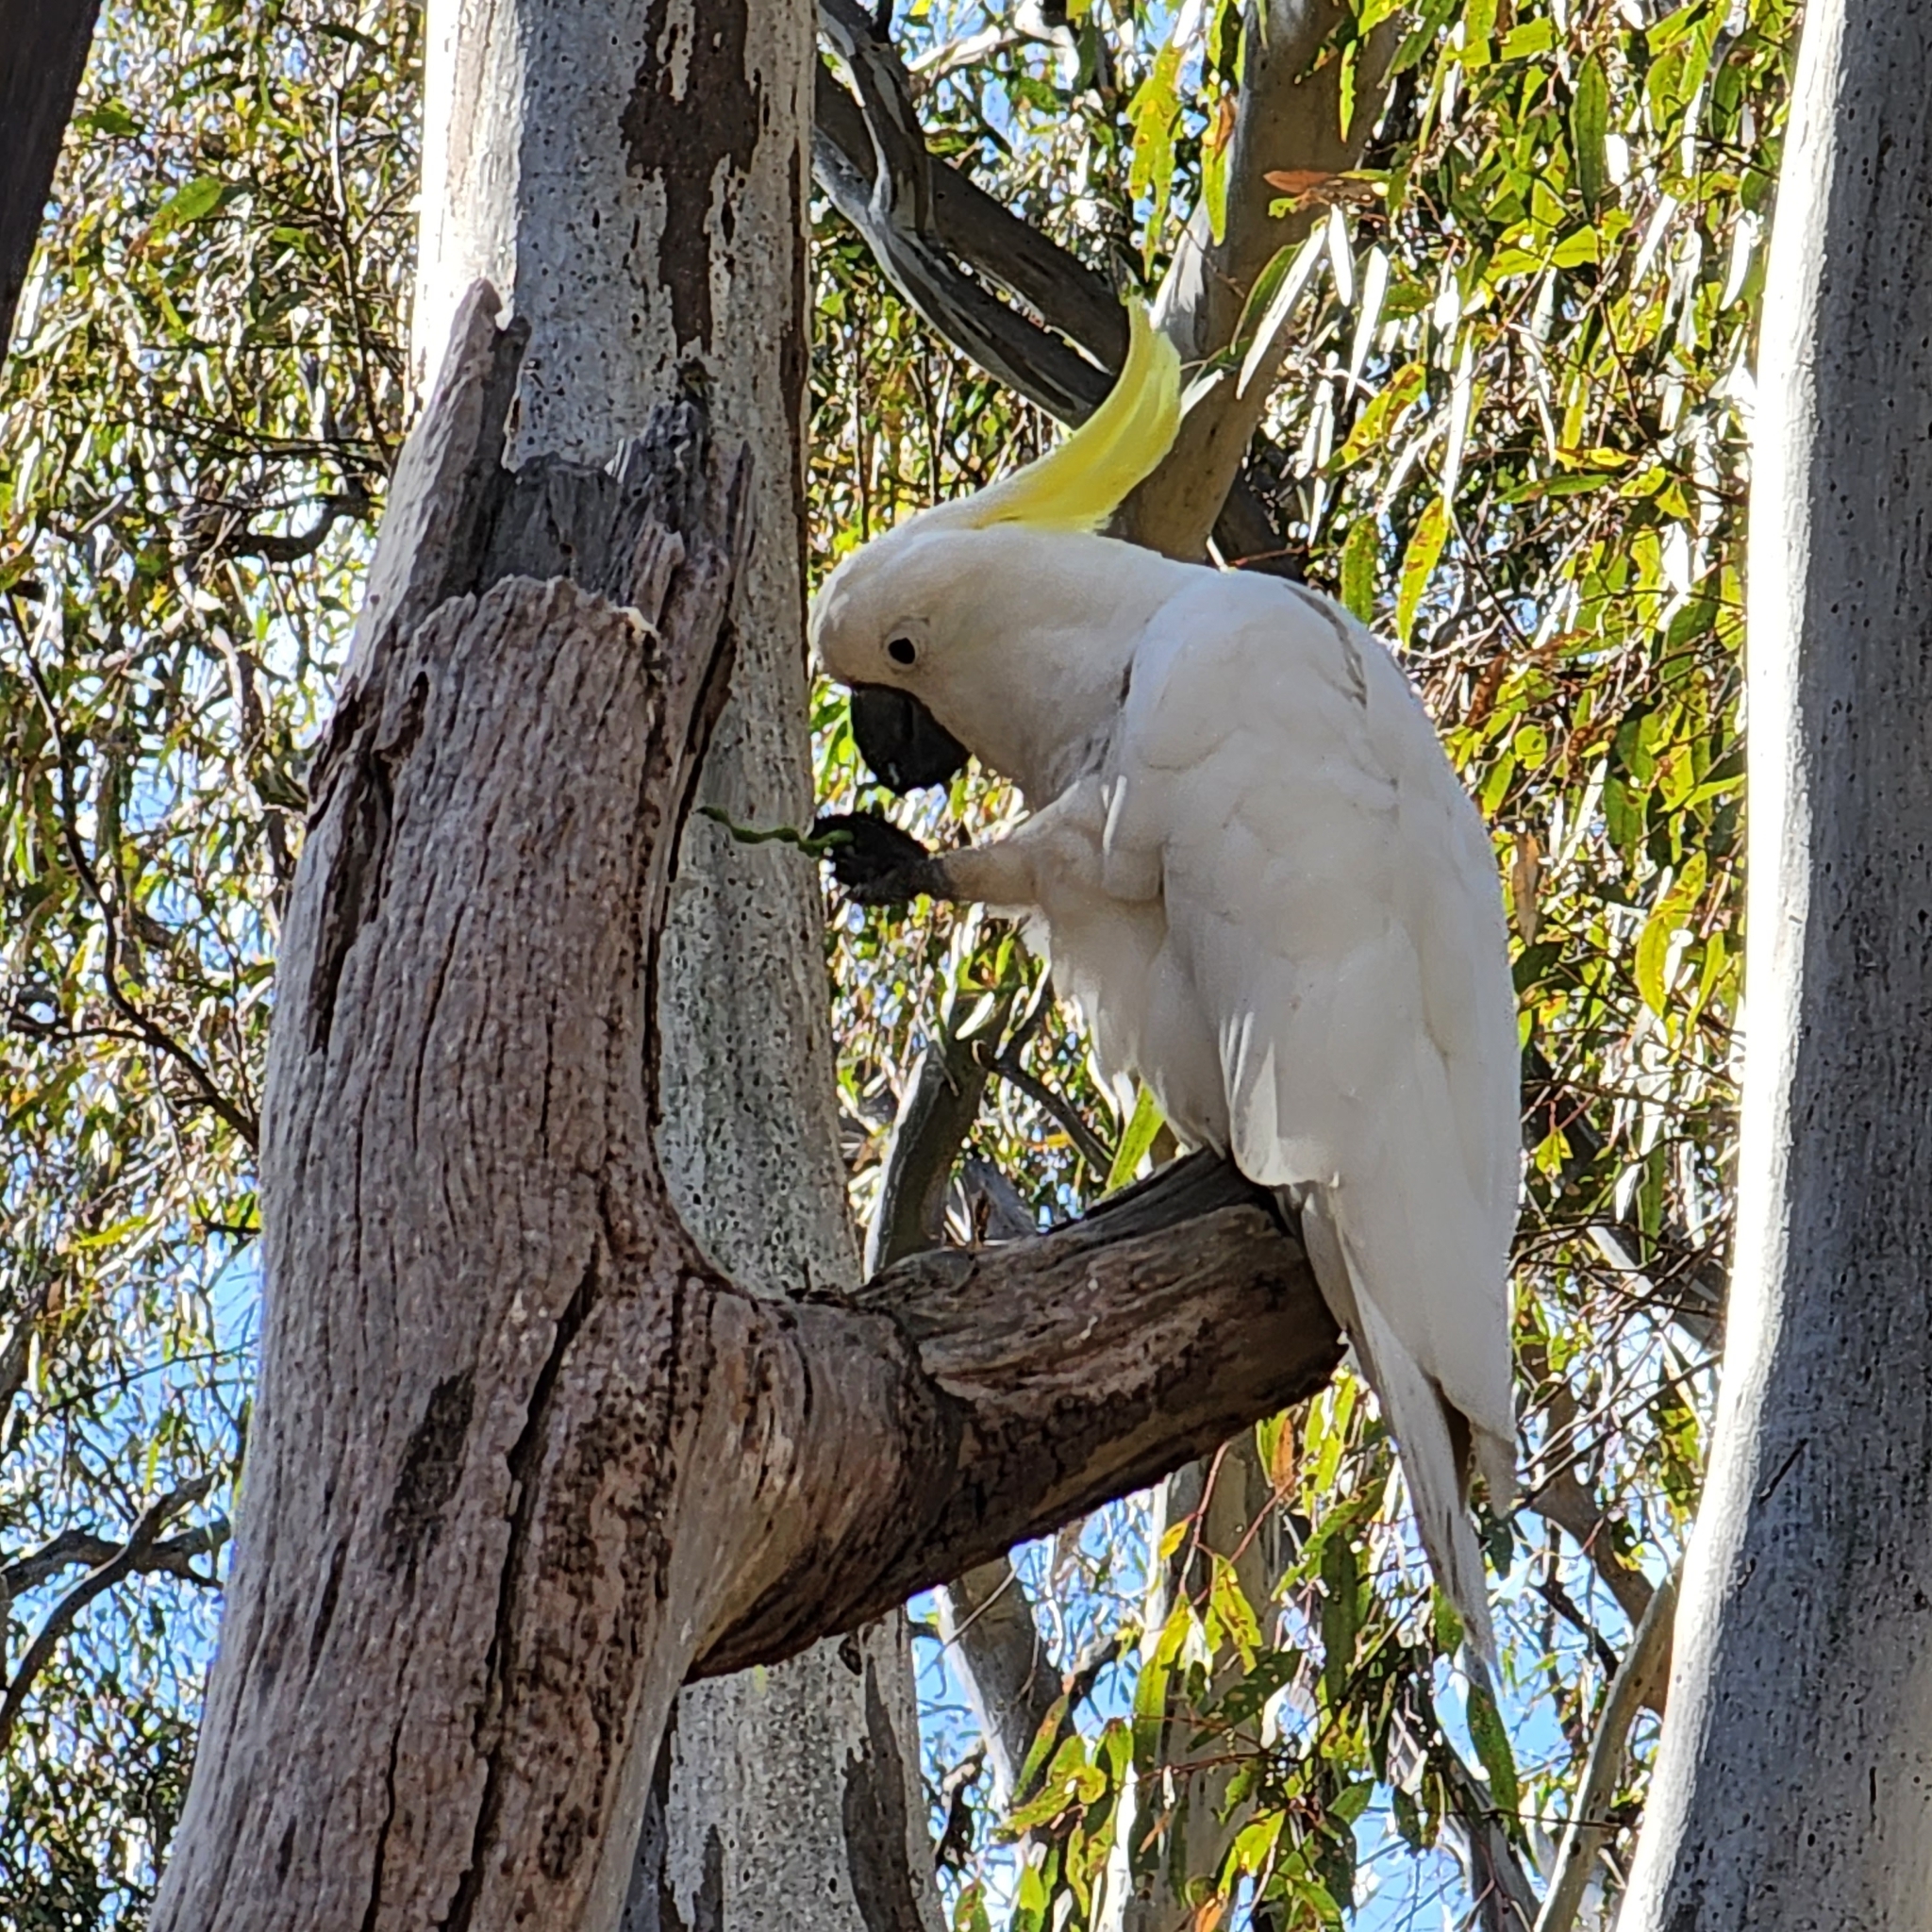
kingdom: Animalia
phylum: Chordata
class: Aves
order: Psittaciformes
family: Psittacidae
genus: Cacatua
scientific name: Cacatua galerita
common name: Sulphur-crested cockatoo
